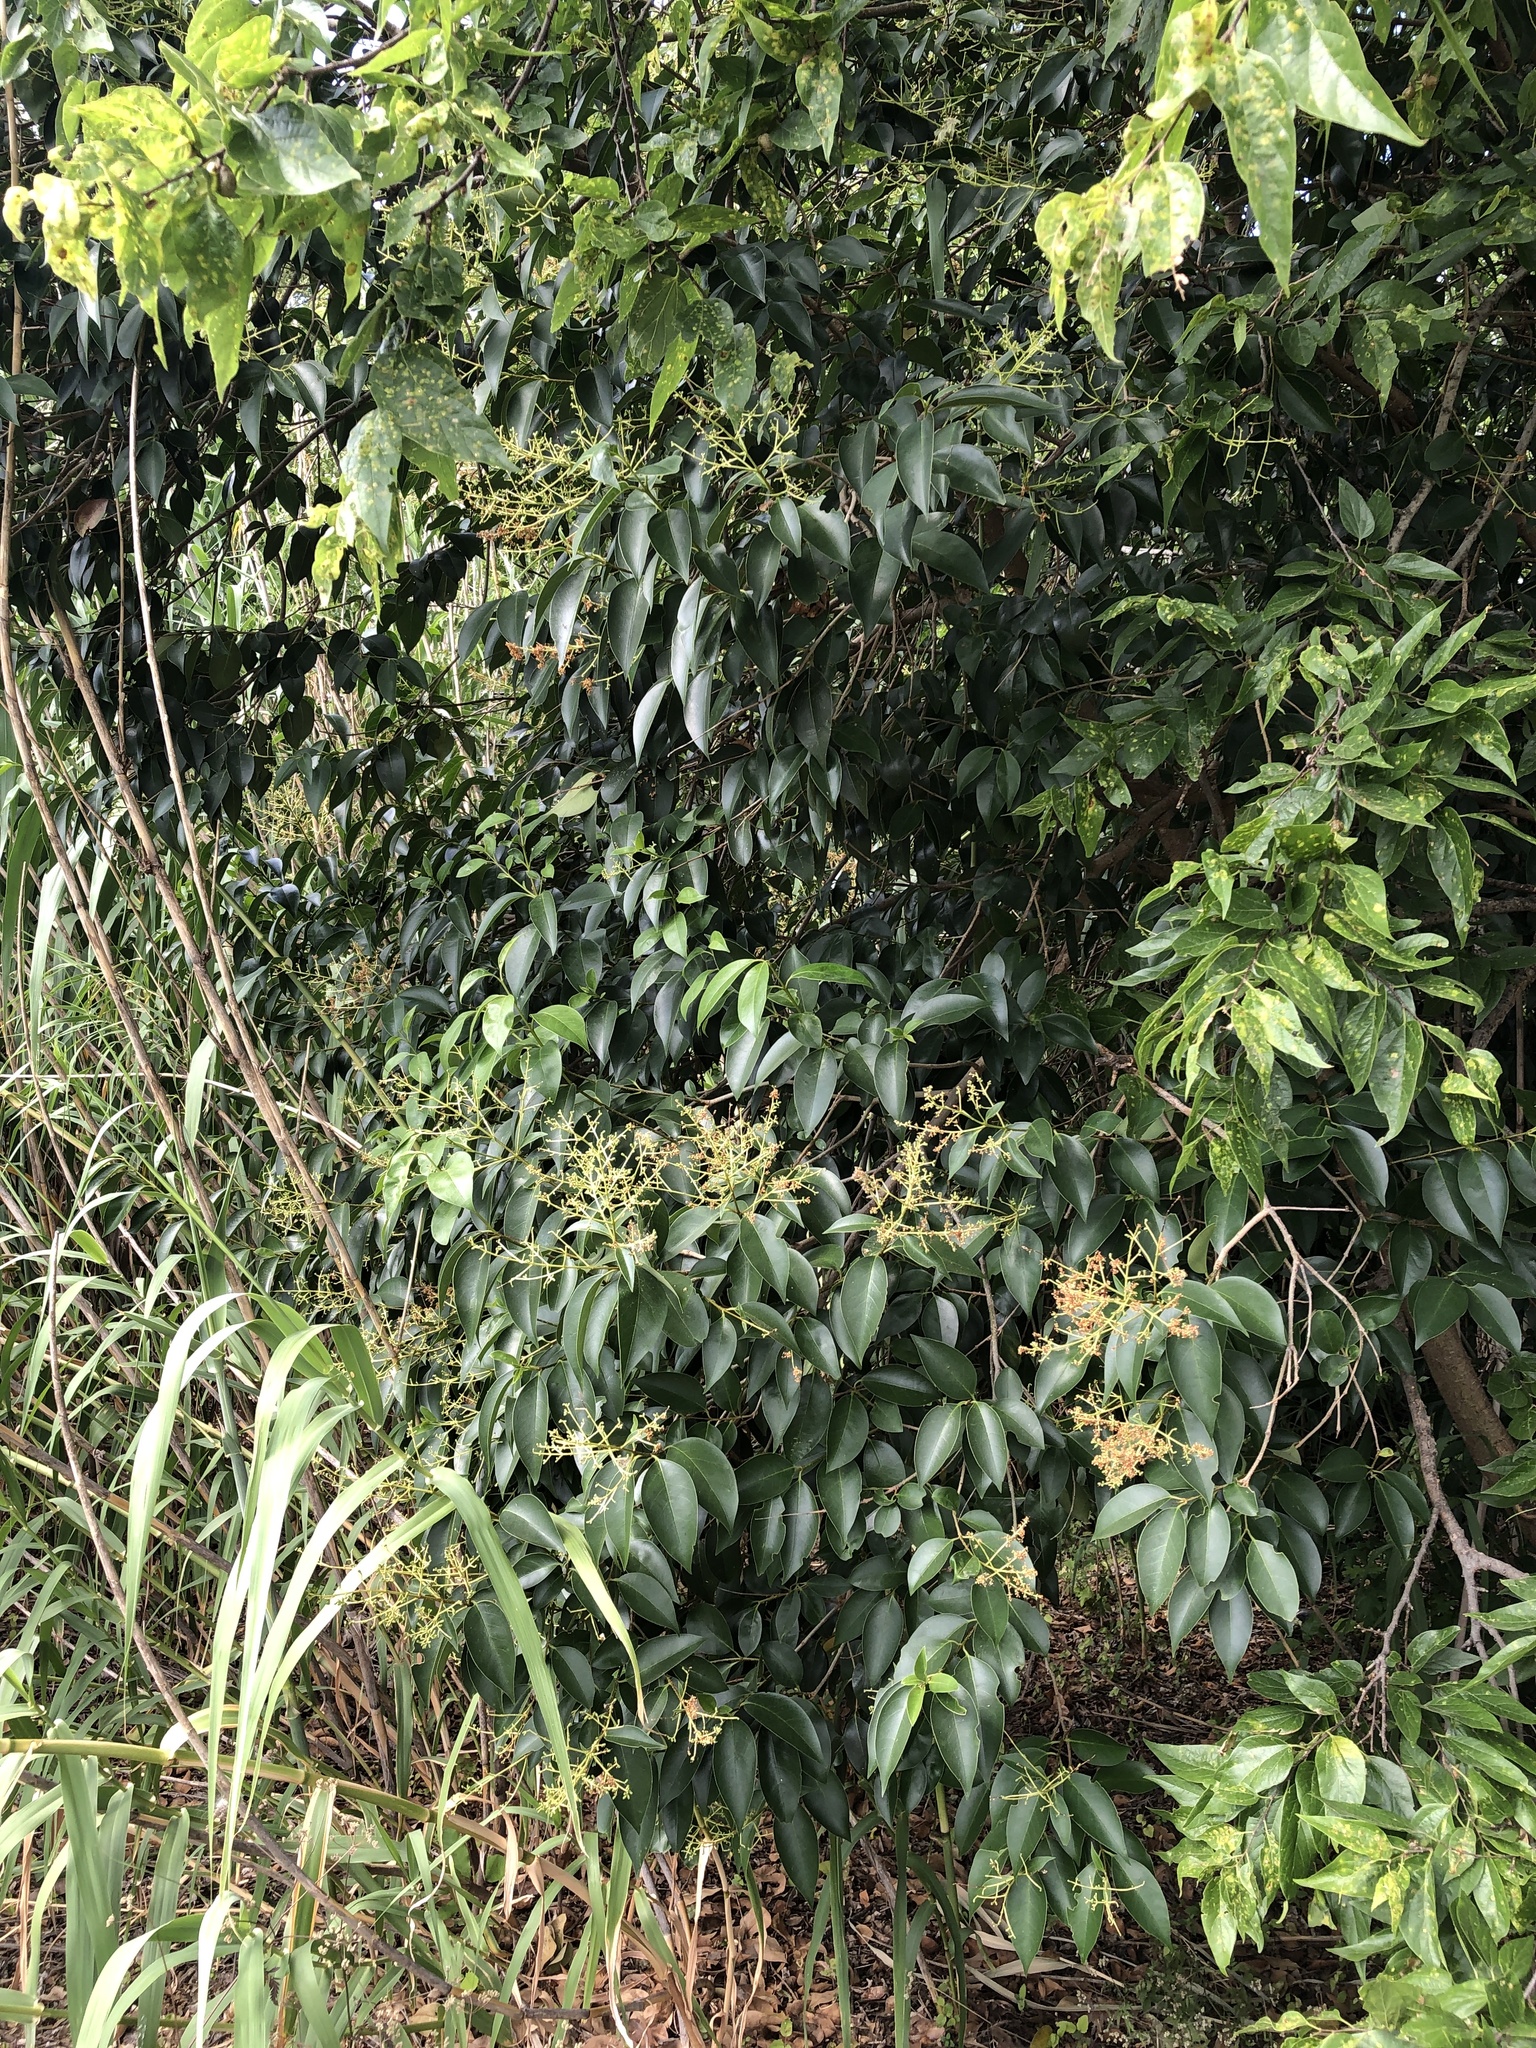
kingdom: Plantae
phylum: Tracheophyta
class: Magnoliopsida
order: Lamiales
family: Oleaceae
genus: Ligustrum
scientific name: Ligustrum lucidum
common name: Glossy privet
